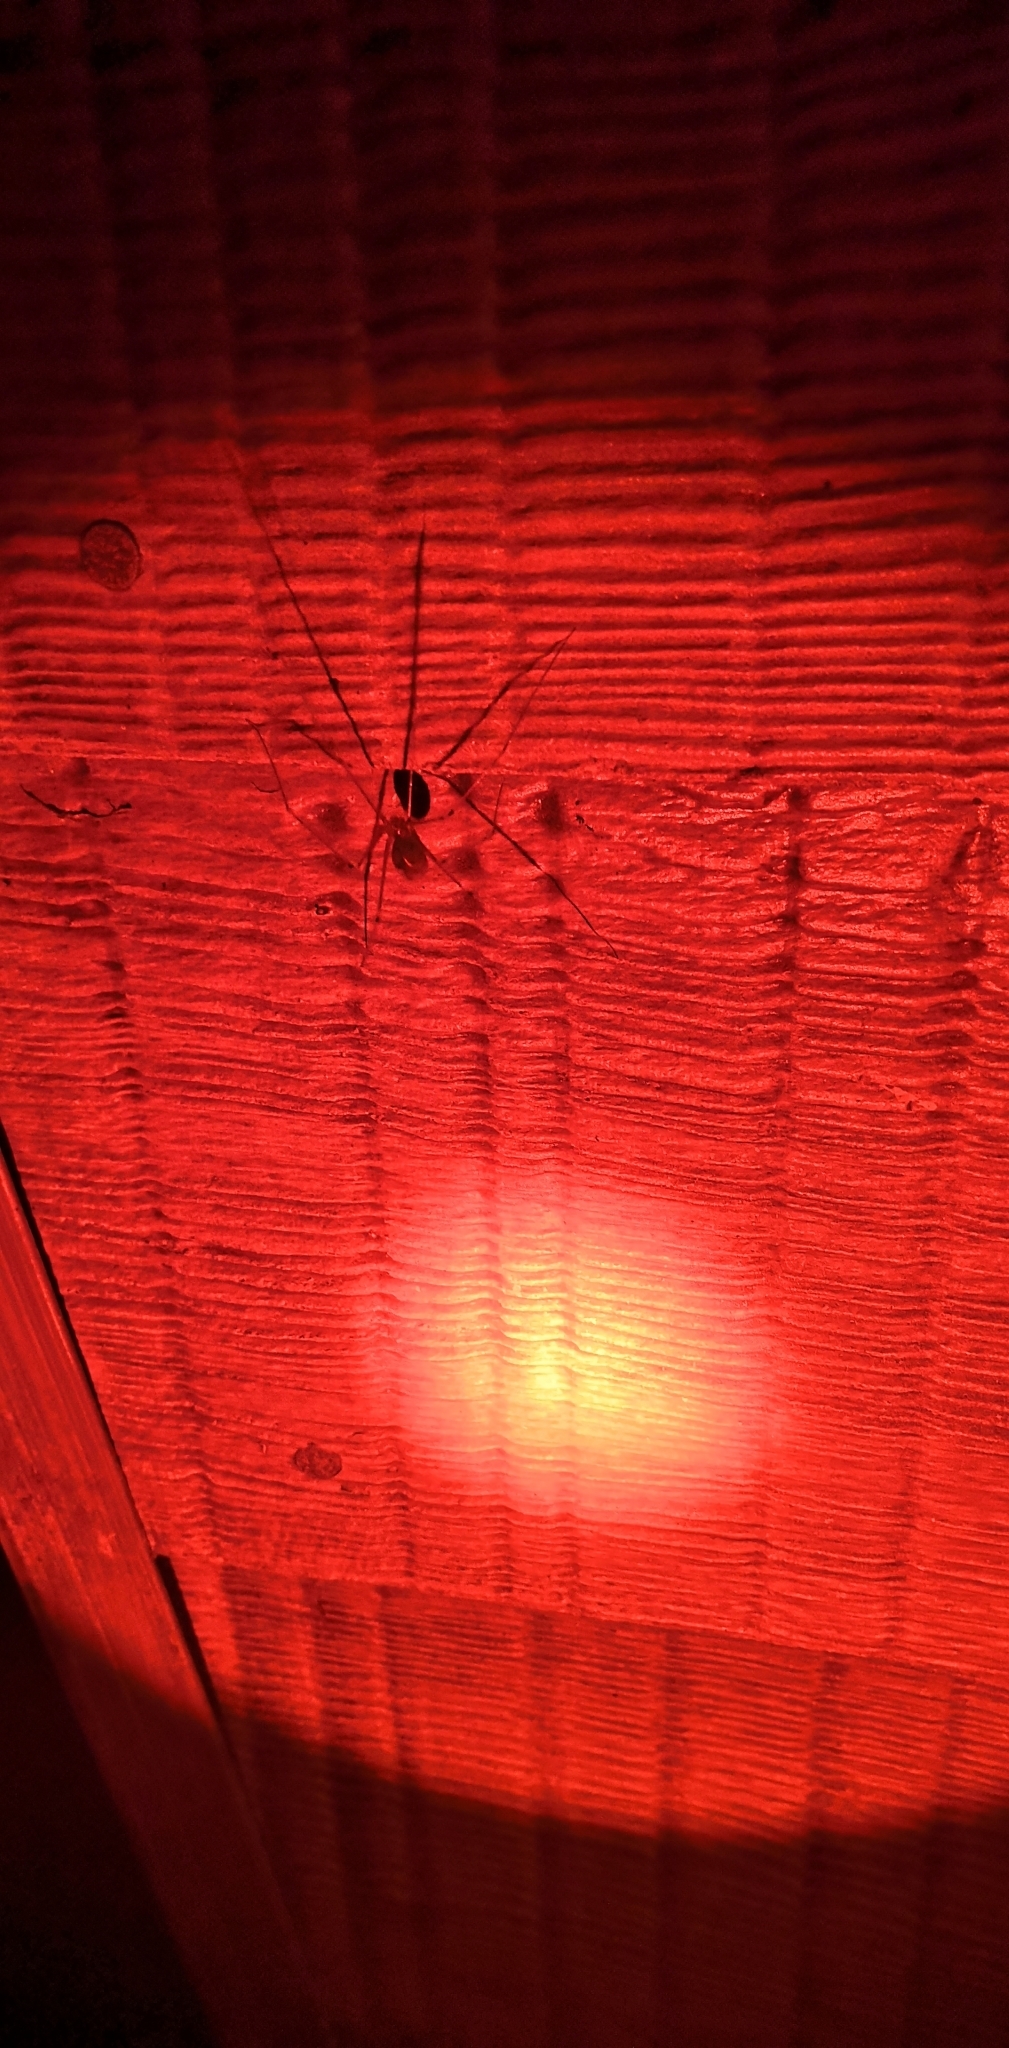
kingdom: Animalia
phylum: Arthropoda
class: Arachnida
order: Araneae
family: Pholcidae
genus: Pholcus
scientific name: Pholcus phalangioides
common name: Longbodied cellar spider
